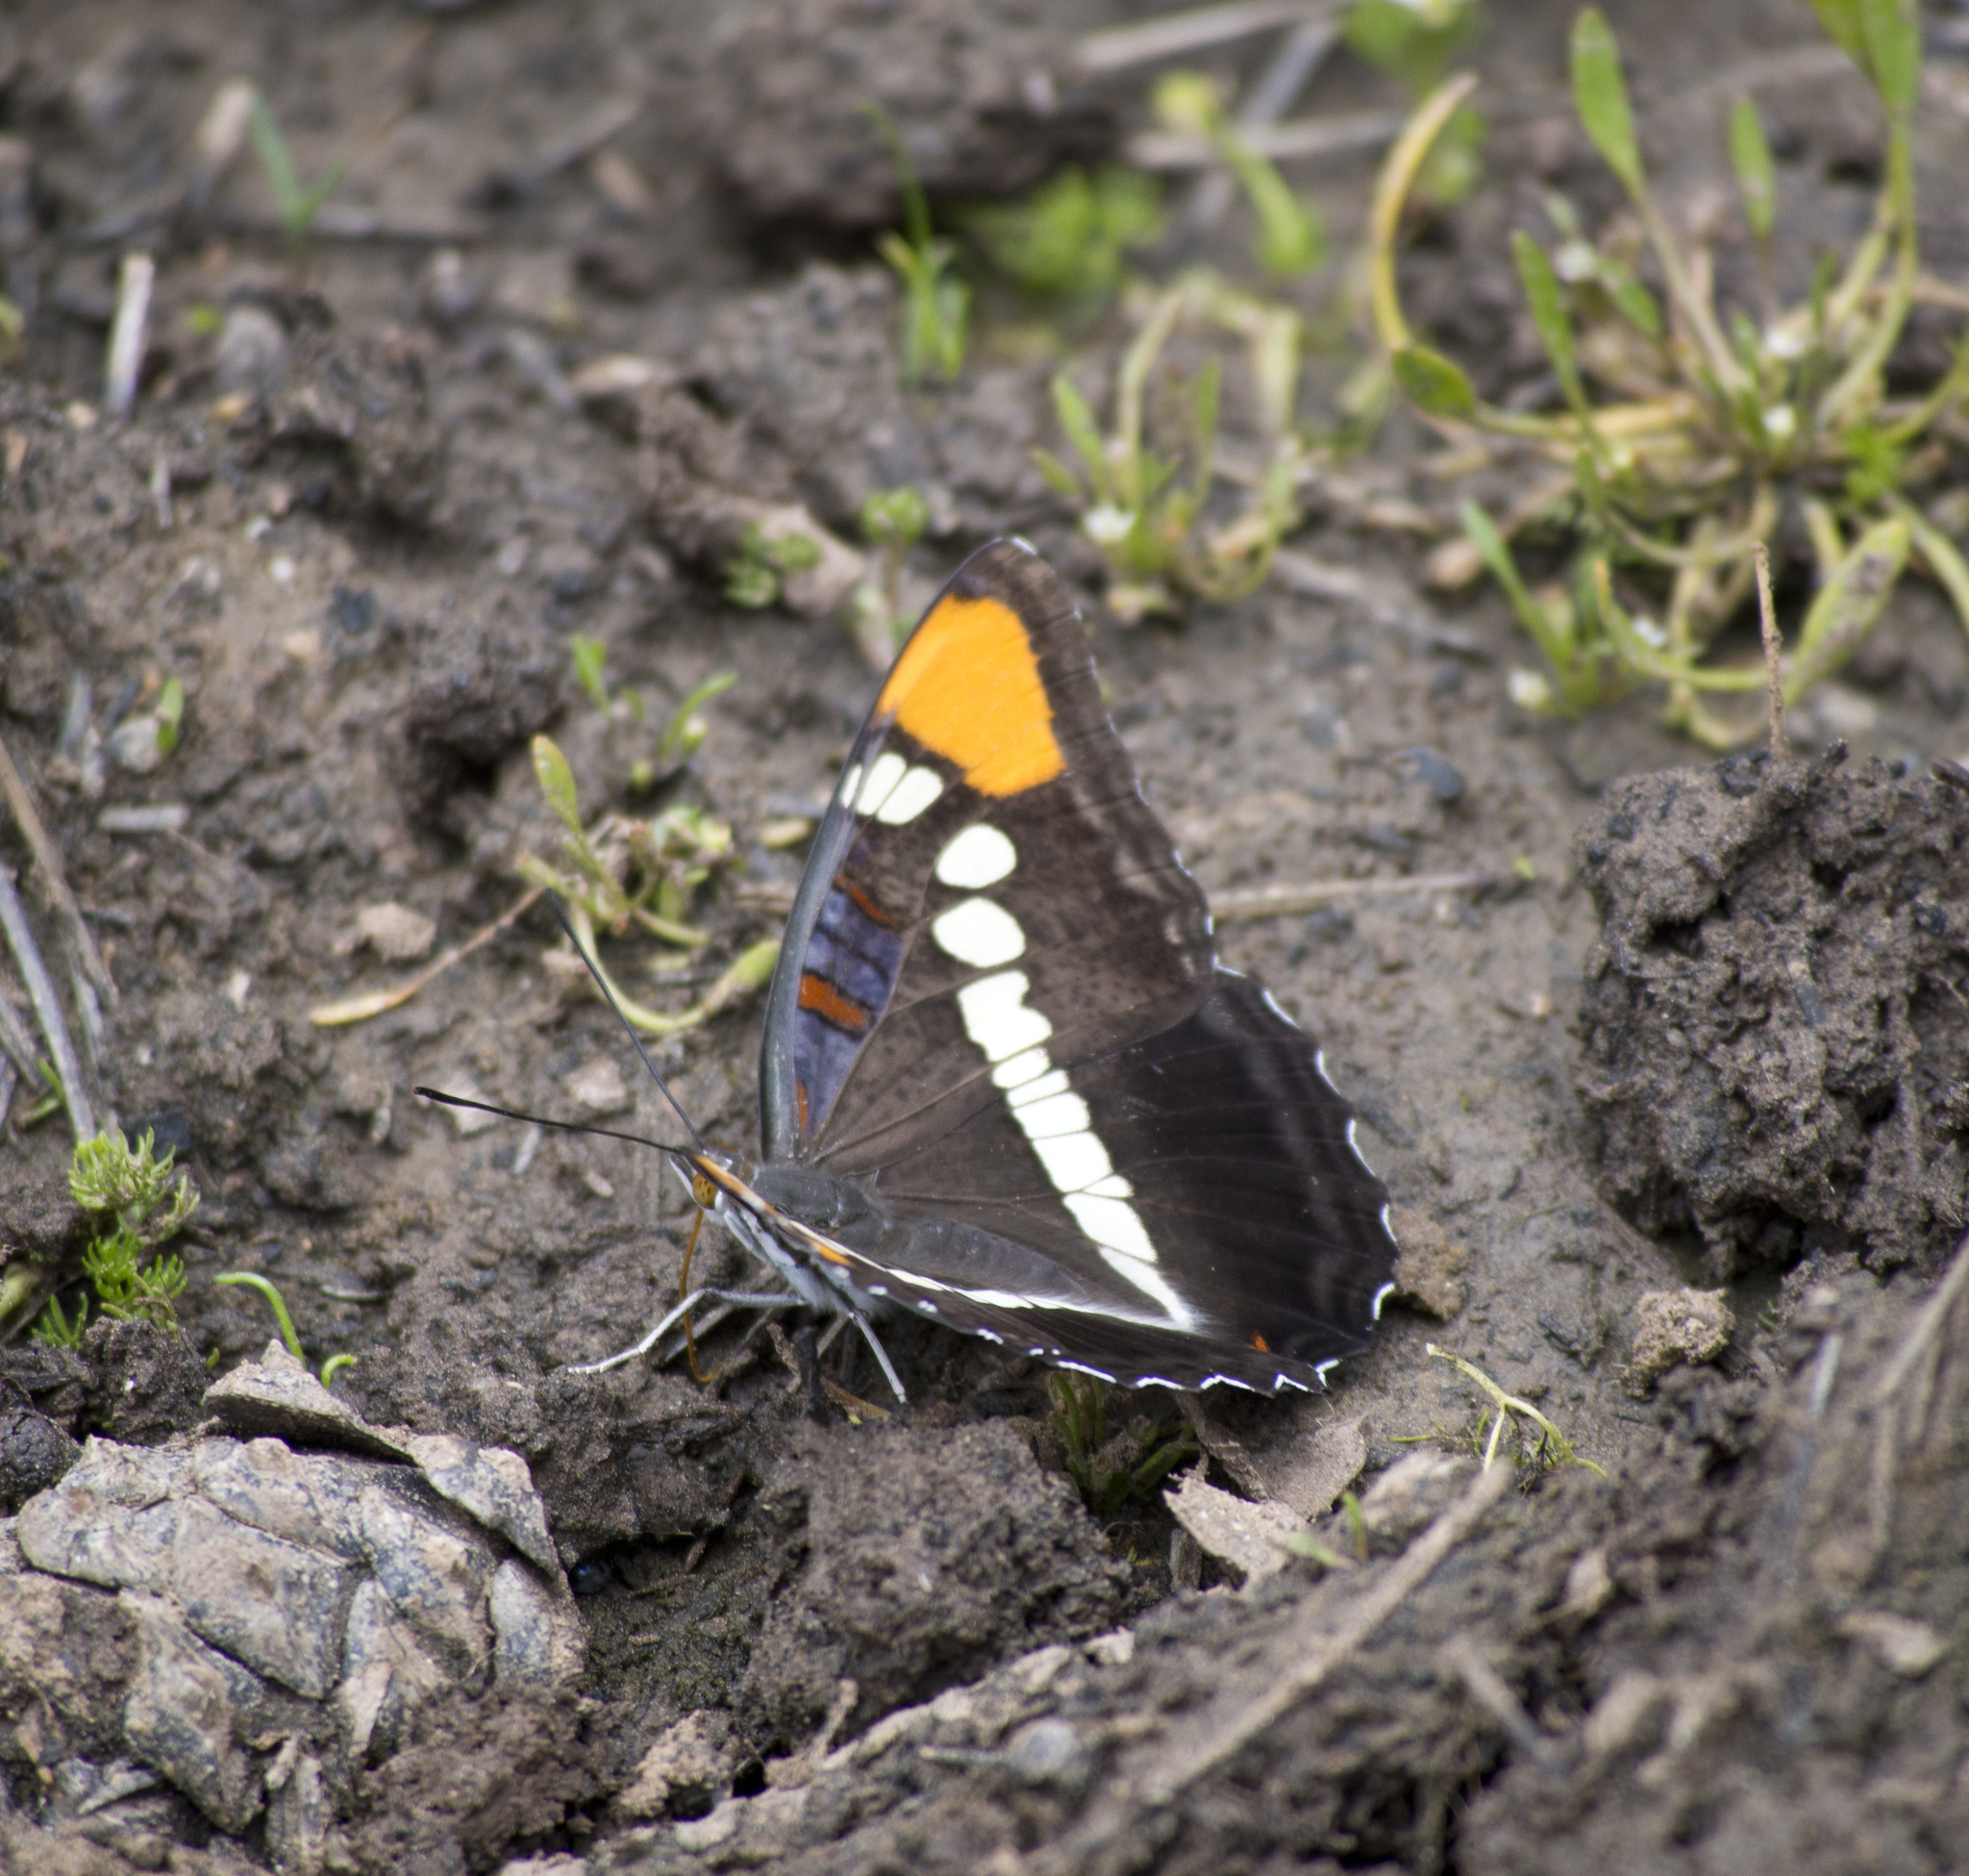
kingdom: Animalia
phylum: Arthropoda
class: Insecta
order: Lepidoptera
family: Nymphalidae
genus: Limenitis
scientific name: Limenitis bredowii
